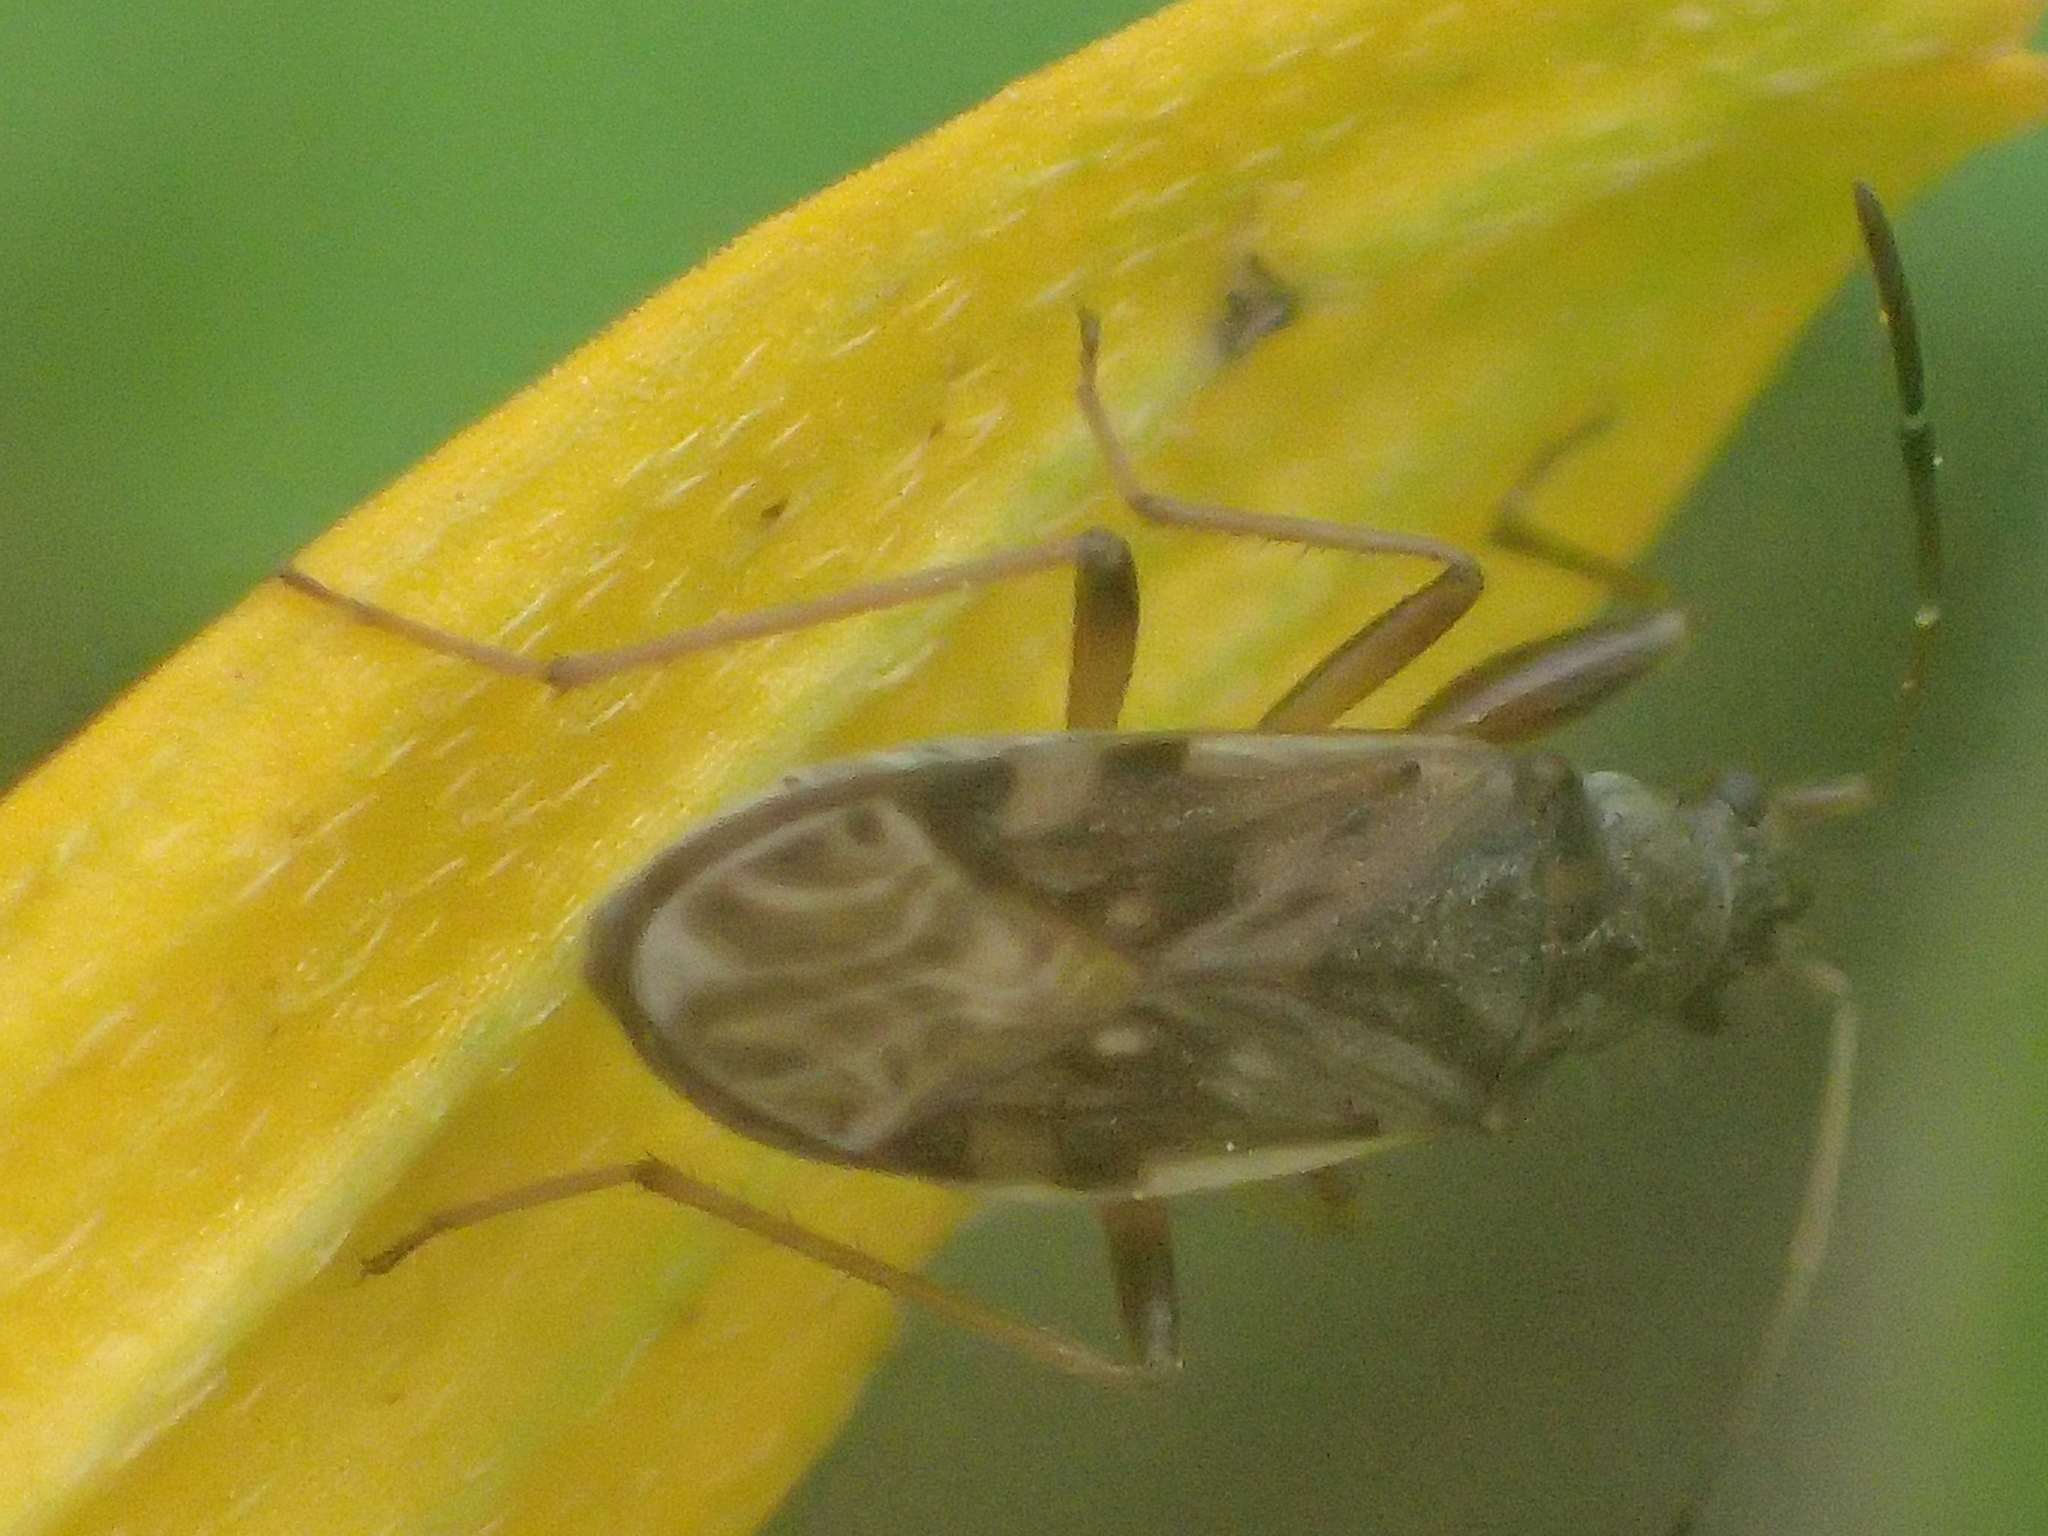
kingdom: Animalia
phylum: Arthropoda
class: Insecta
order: Hemiptera
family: Rhyparochromidae
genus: Ligyrocoris
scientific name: Ligyrocoris
